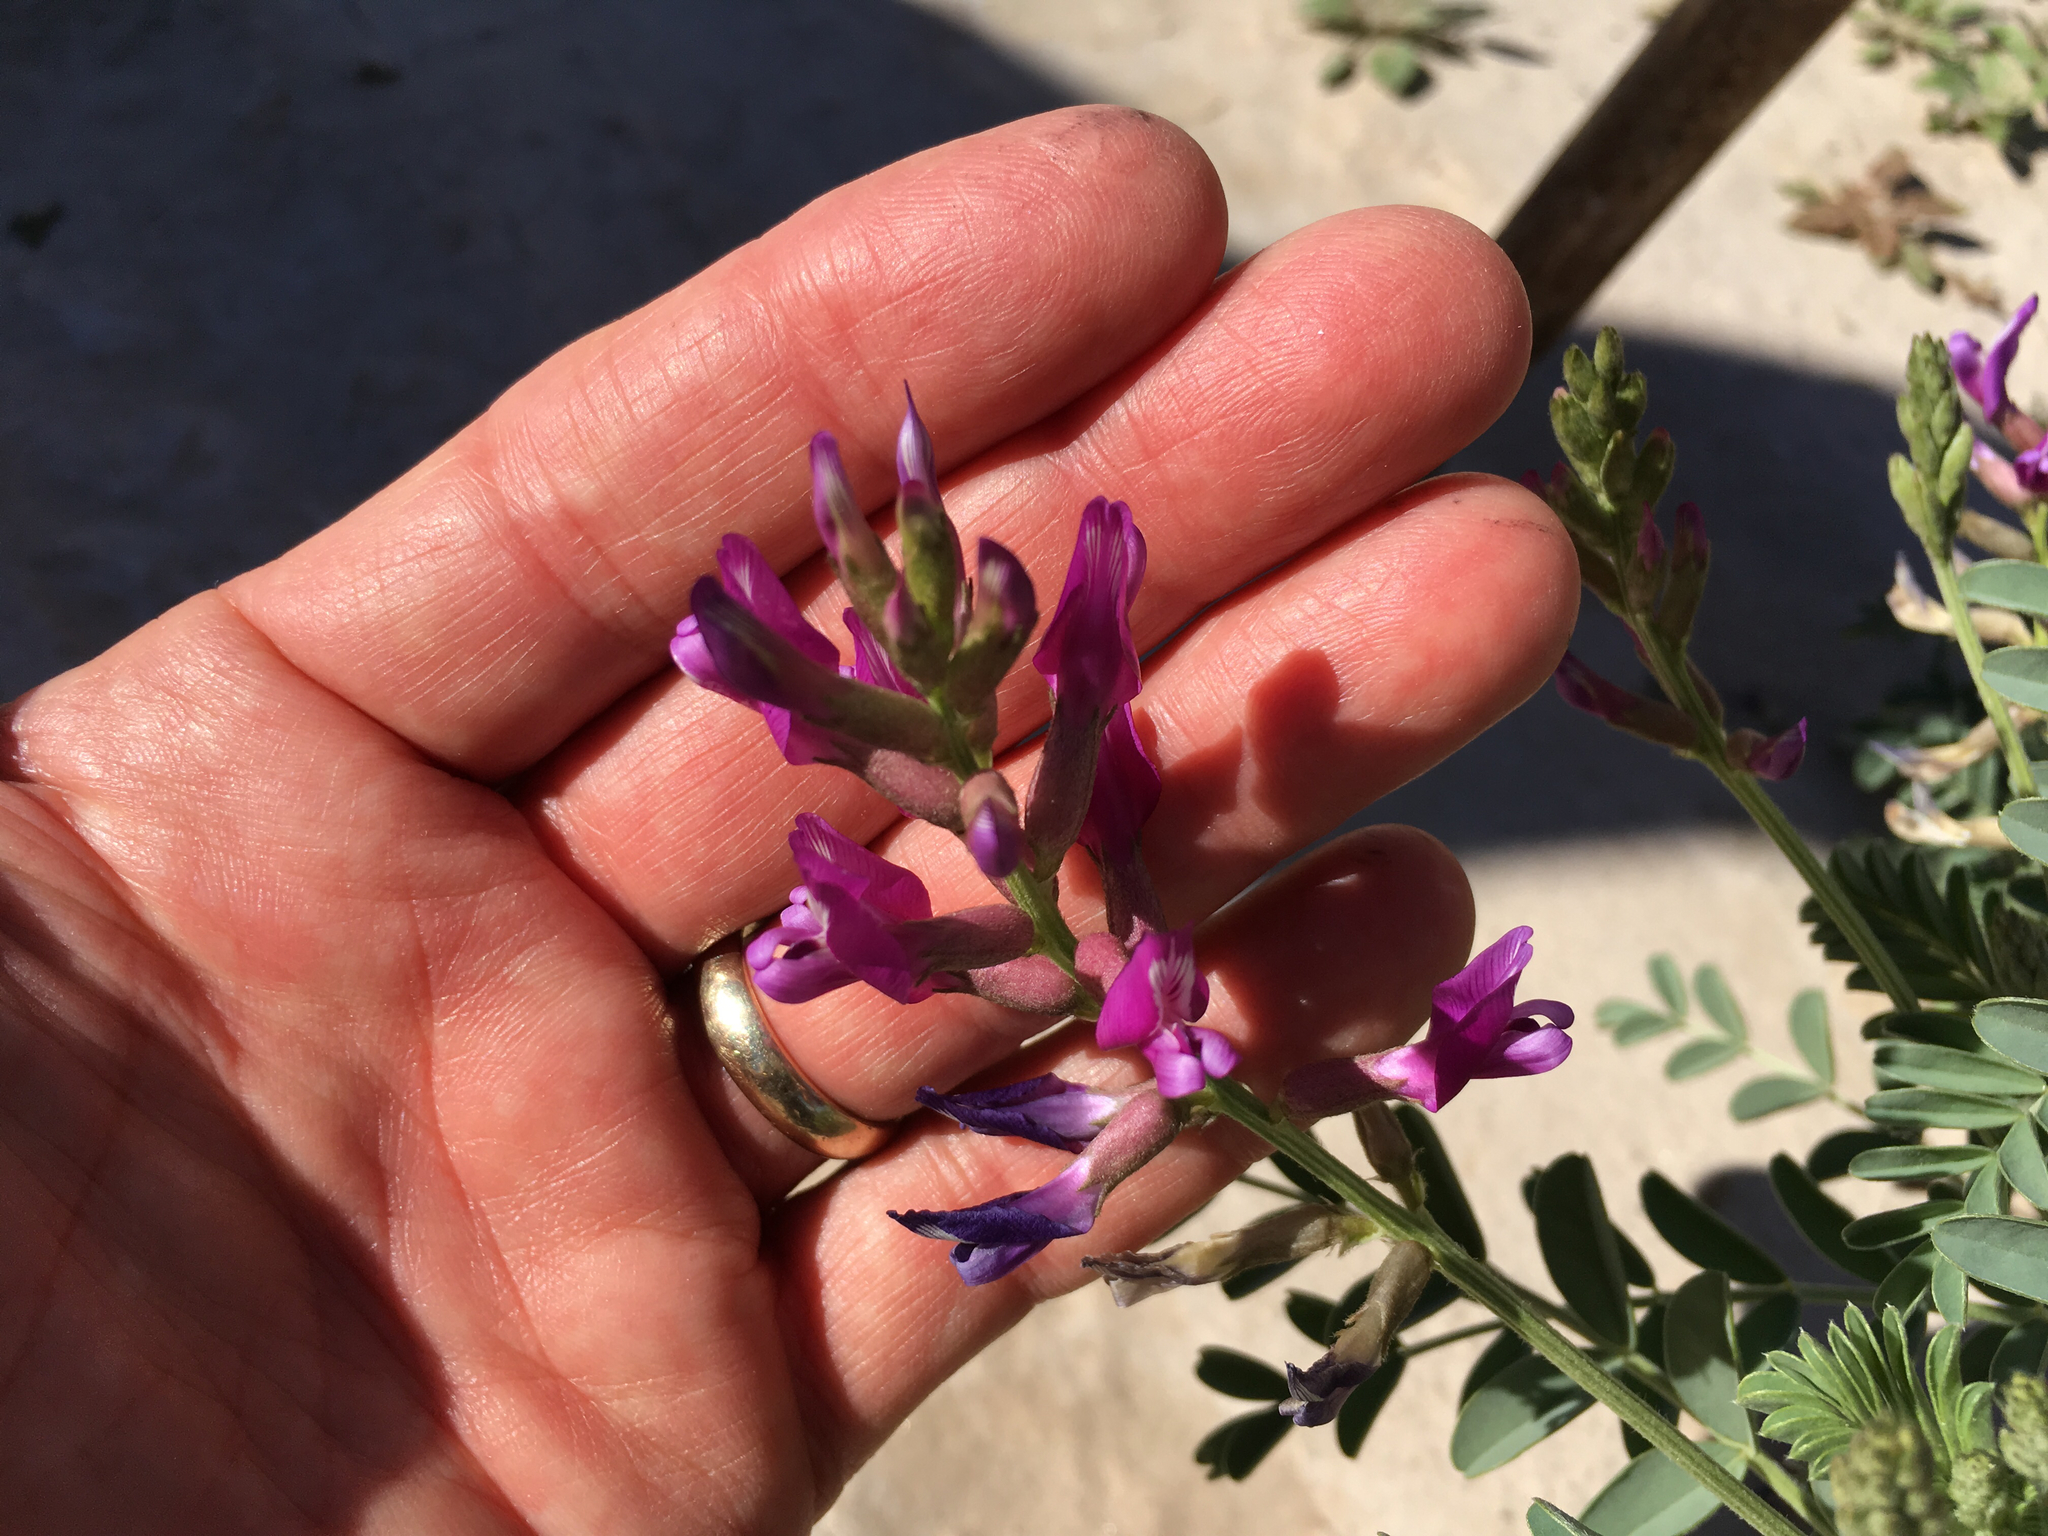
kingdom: Plantae
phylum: Tracheophyta
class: Magnoliopsida
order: Fabales
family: Fabaceae
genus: Astragalus
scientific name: Astragalus crotalariae
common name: Salton milkvetch
